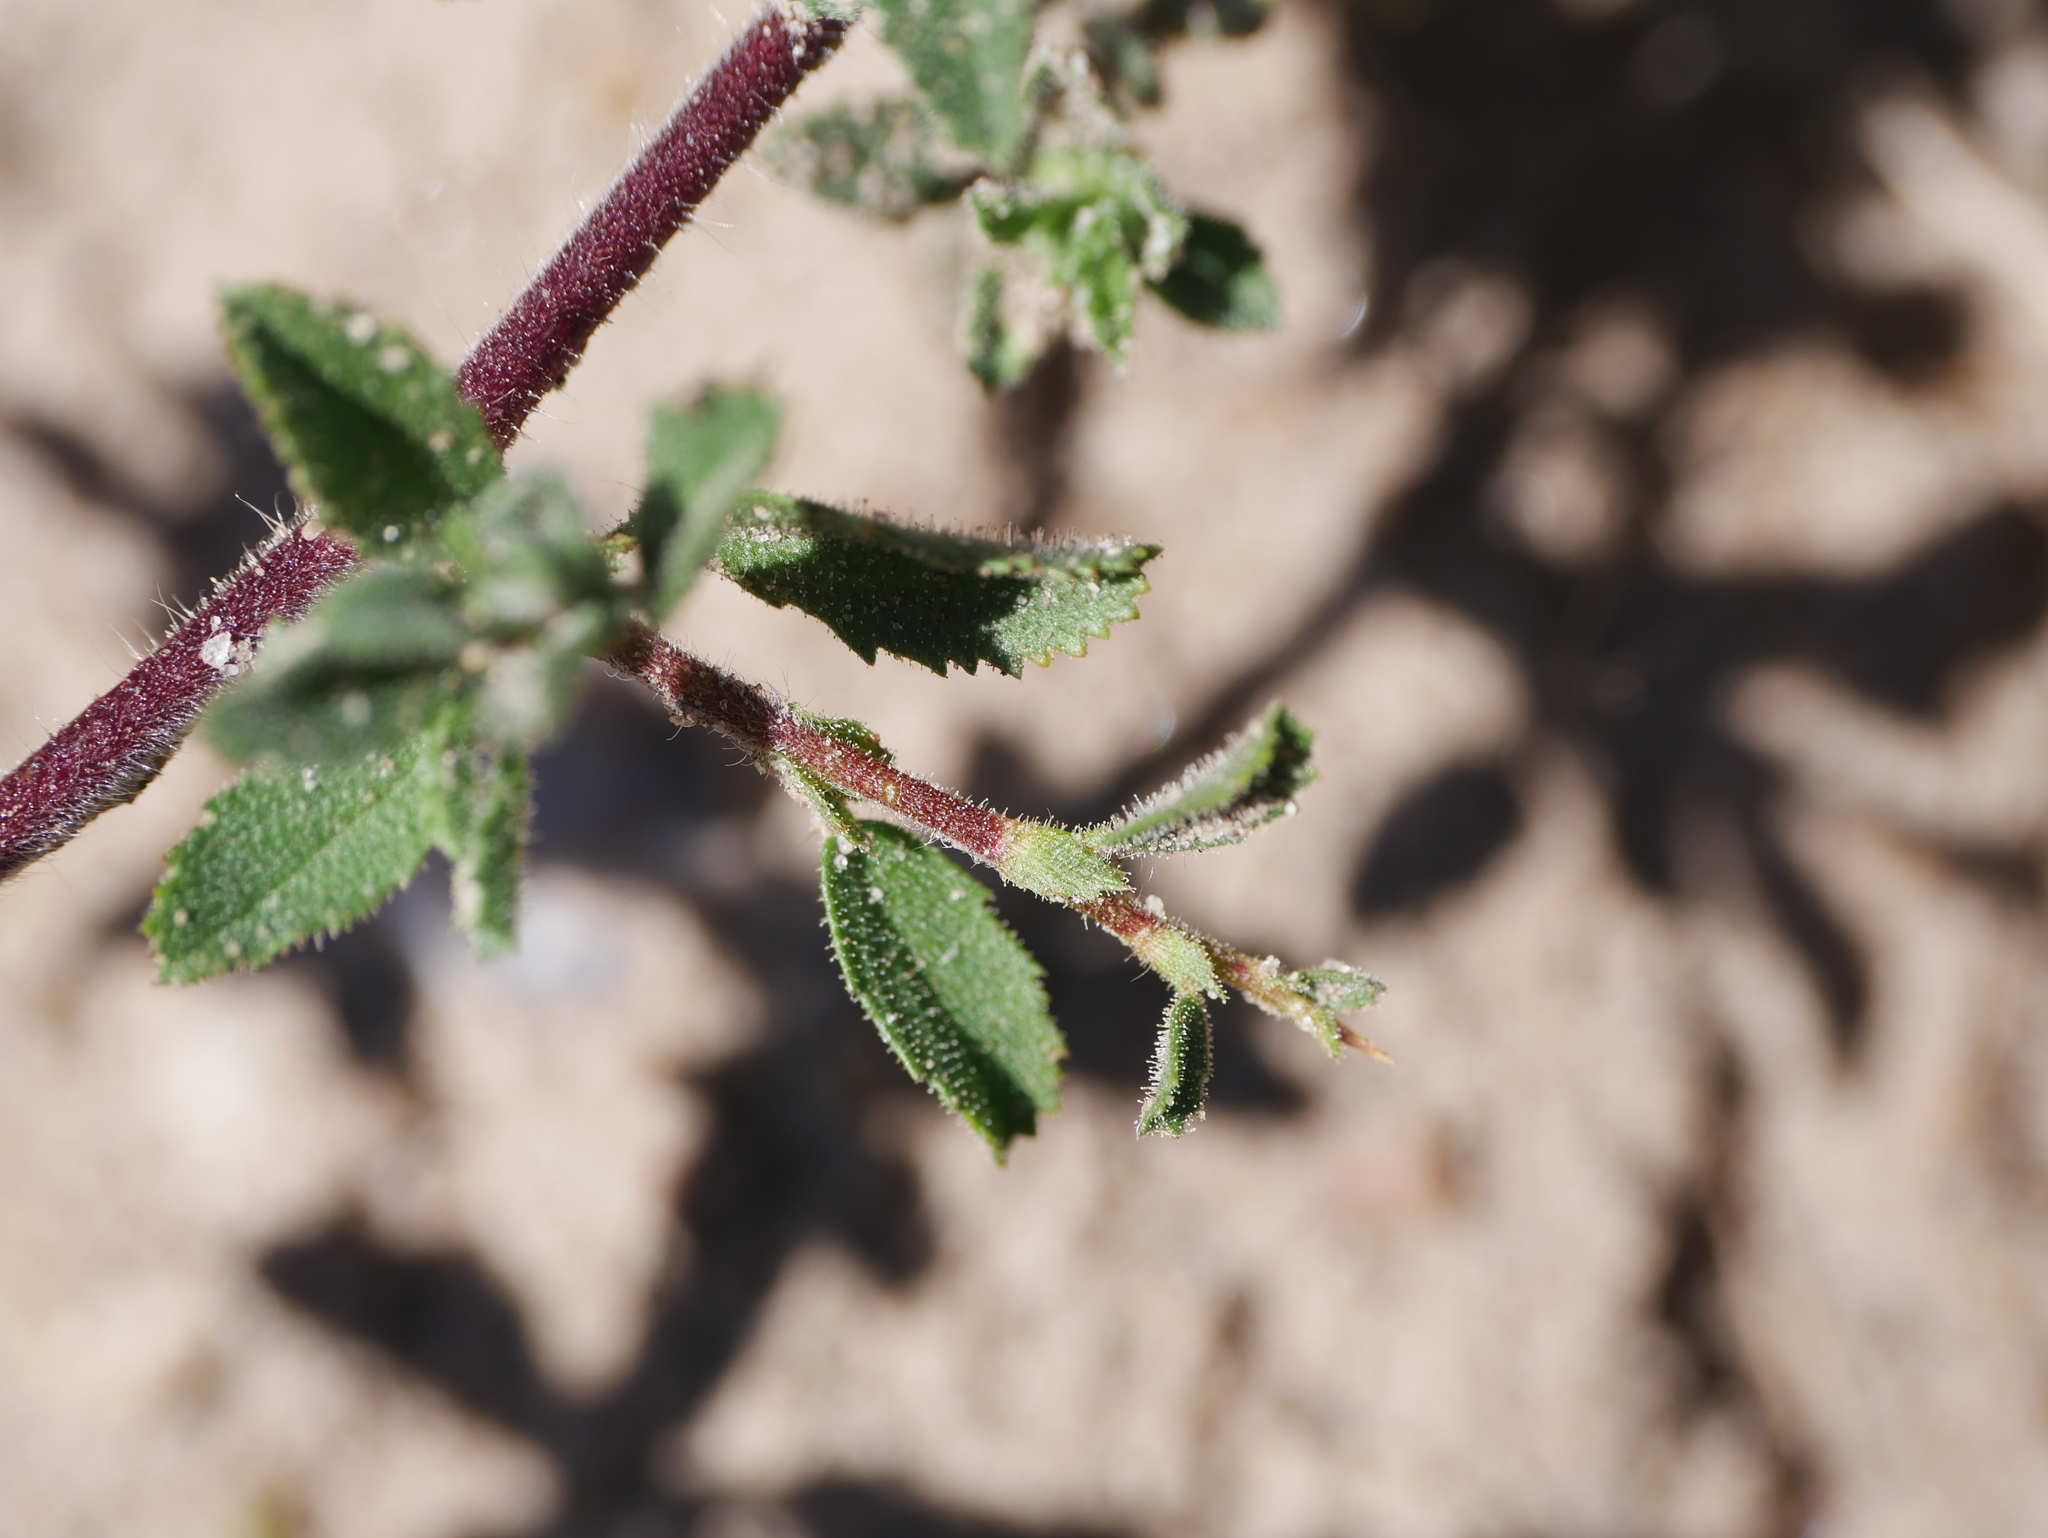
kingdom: Plantae
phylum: Tracheophyta
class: Magnoliopsida
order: Fabales
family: Fabaceae
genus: Ononis
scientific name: Ononis spinosa
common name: Spiny restharrow
